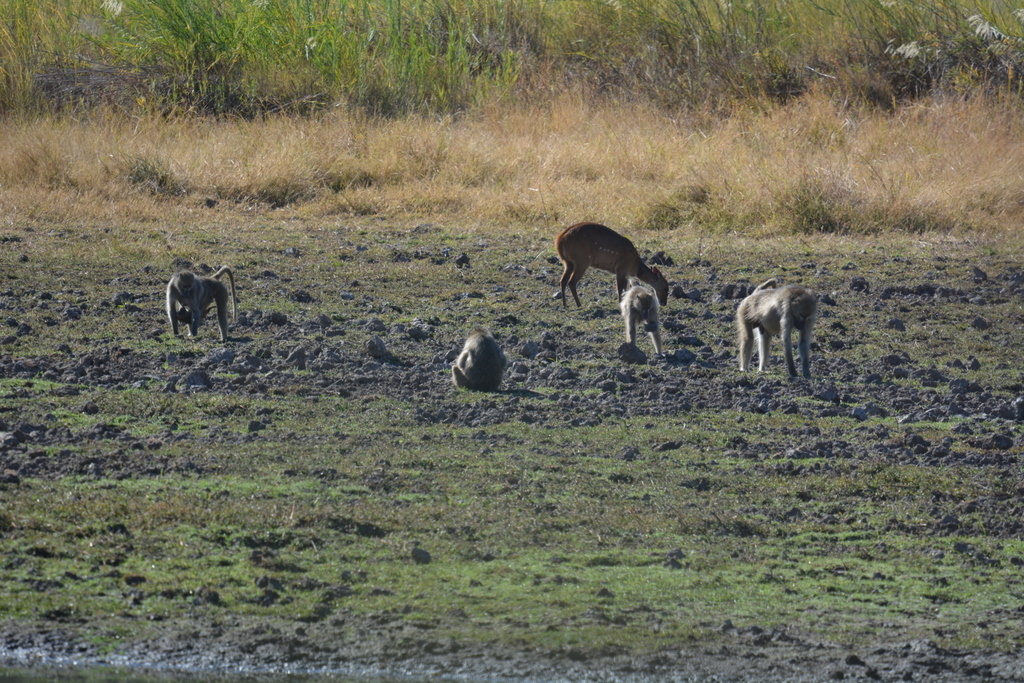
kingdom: Animalia
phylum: Chordata
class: Mammalia
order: Primates
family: Cercopithecidae
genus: Papio
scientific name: Papio ursinus
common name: Chacma baboon
